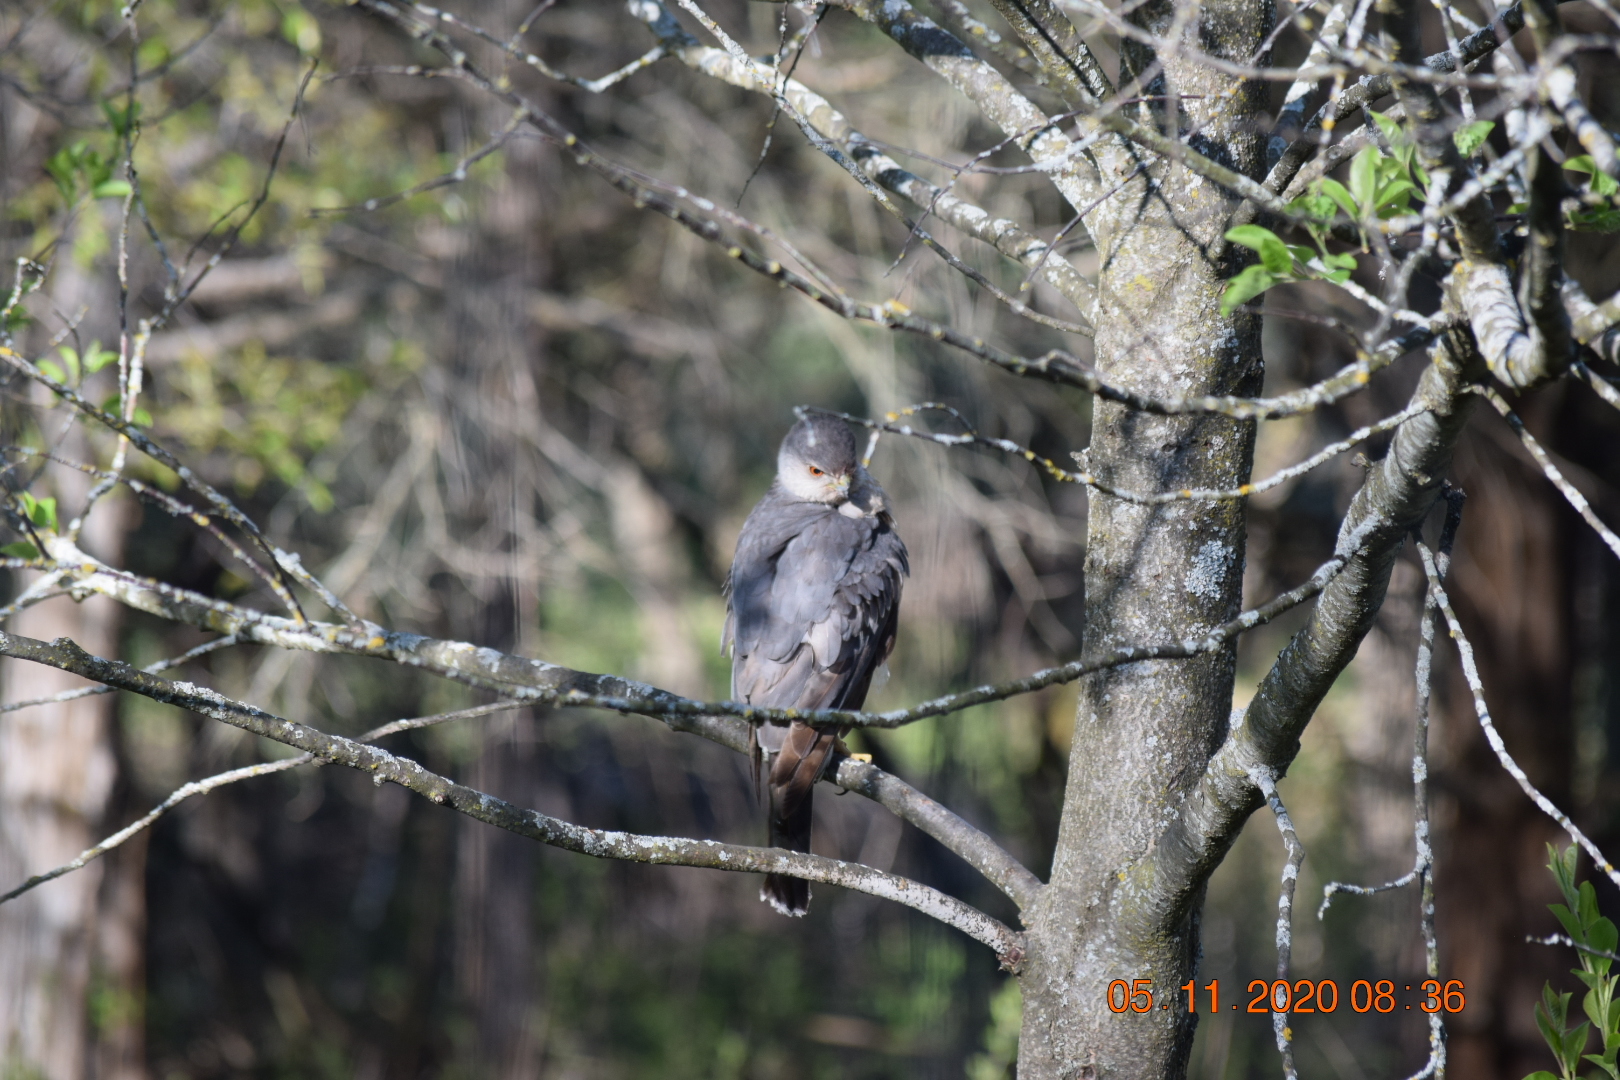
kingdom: Animalia
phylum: Chordata
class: Aves
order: Accipitriformes
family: Accipitridae
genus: Accipiter
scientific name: Accipiter cooperii
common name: Cooper's hawk
